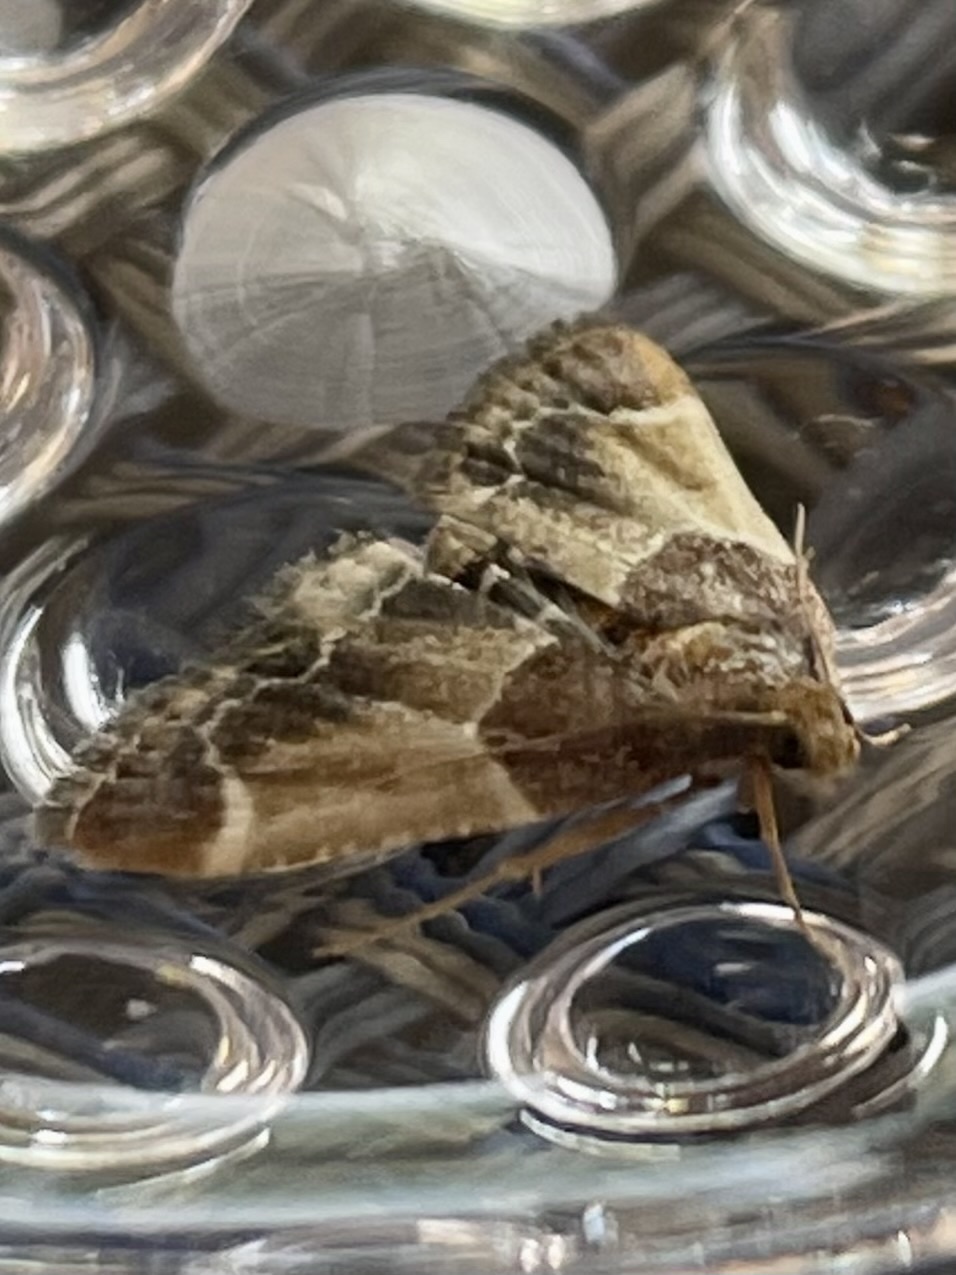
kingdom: Animalia
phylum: Arthropoda
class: Insecta
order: Lepidoptera
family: Pyralidae
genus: Pyralis
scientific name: Pyralis farinalis
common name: Meal moth
